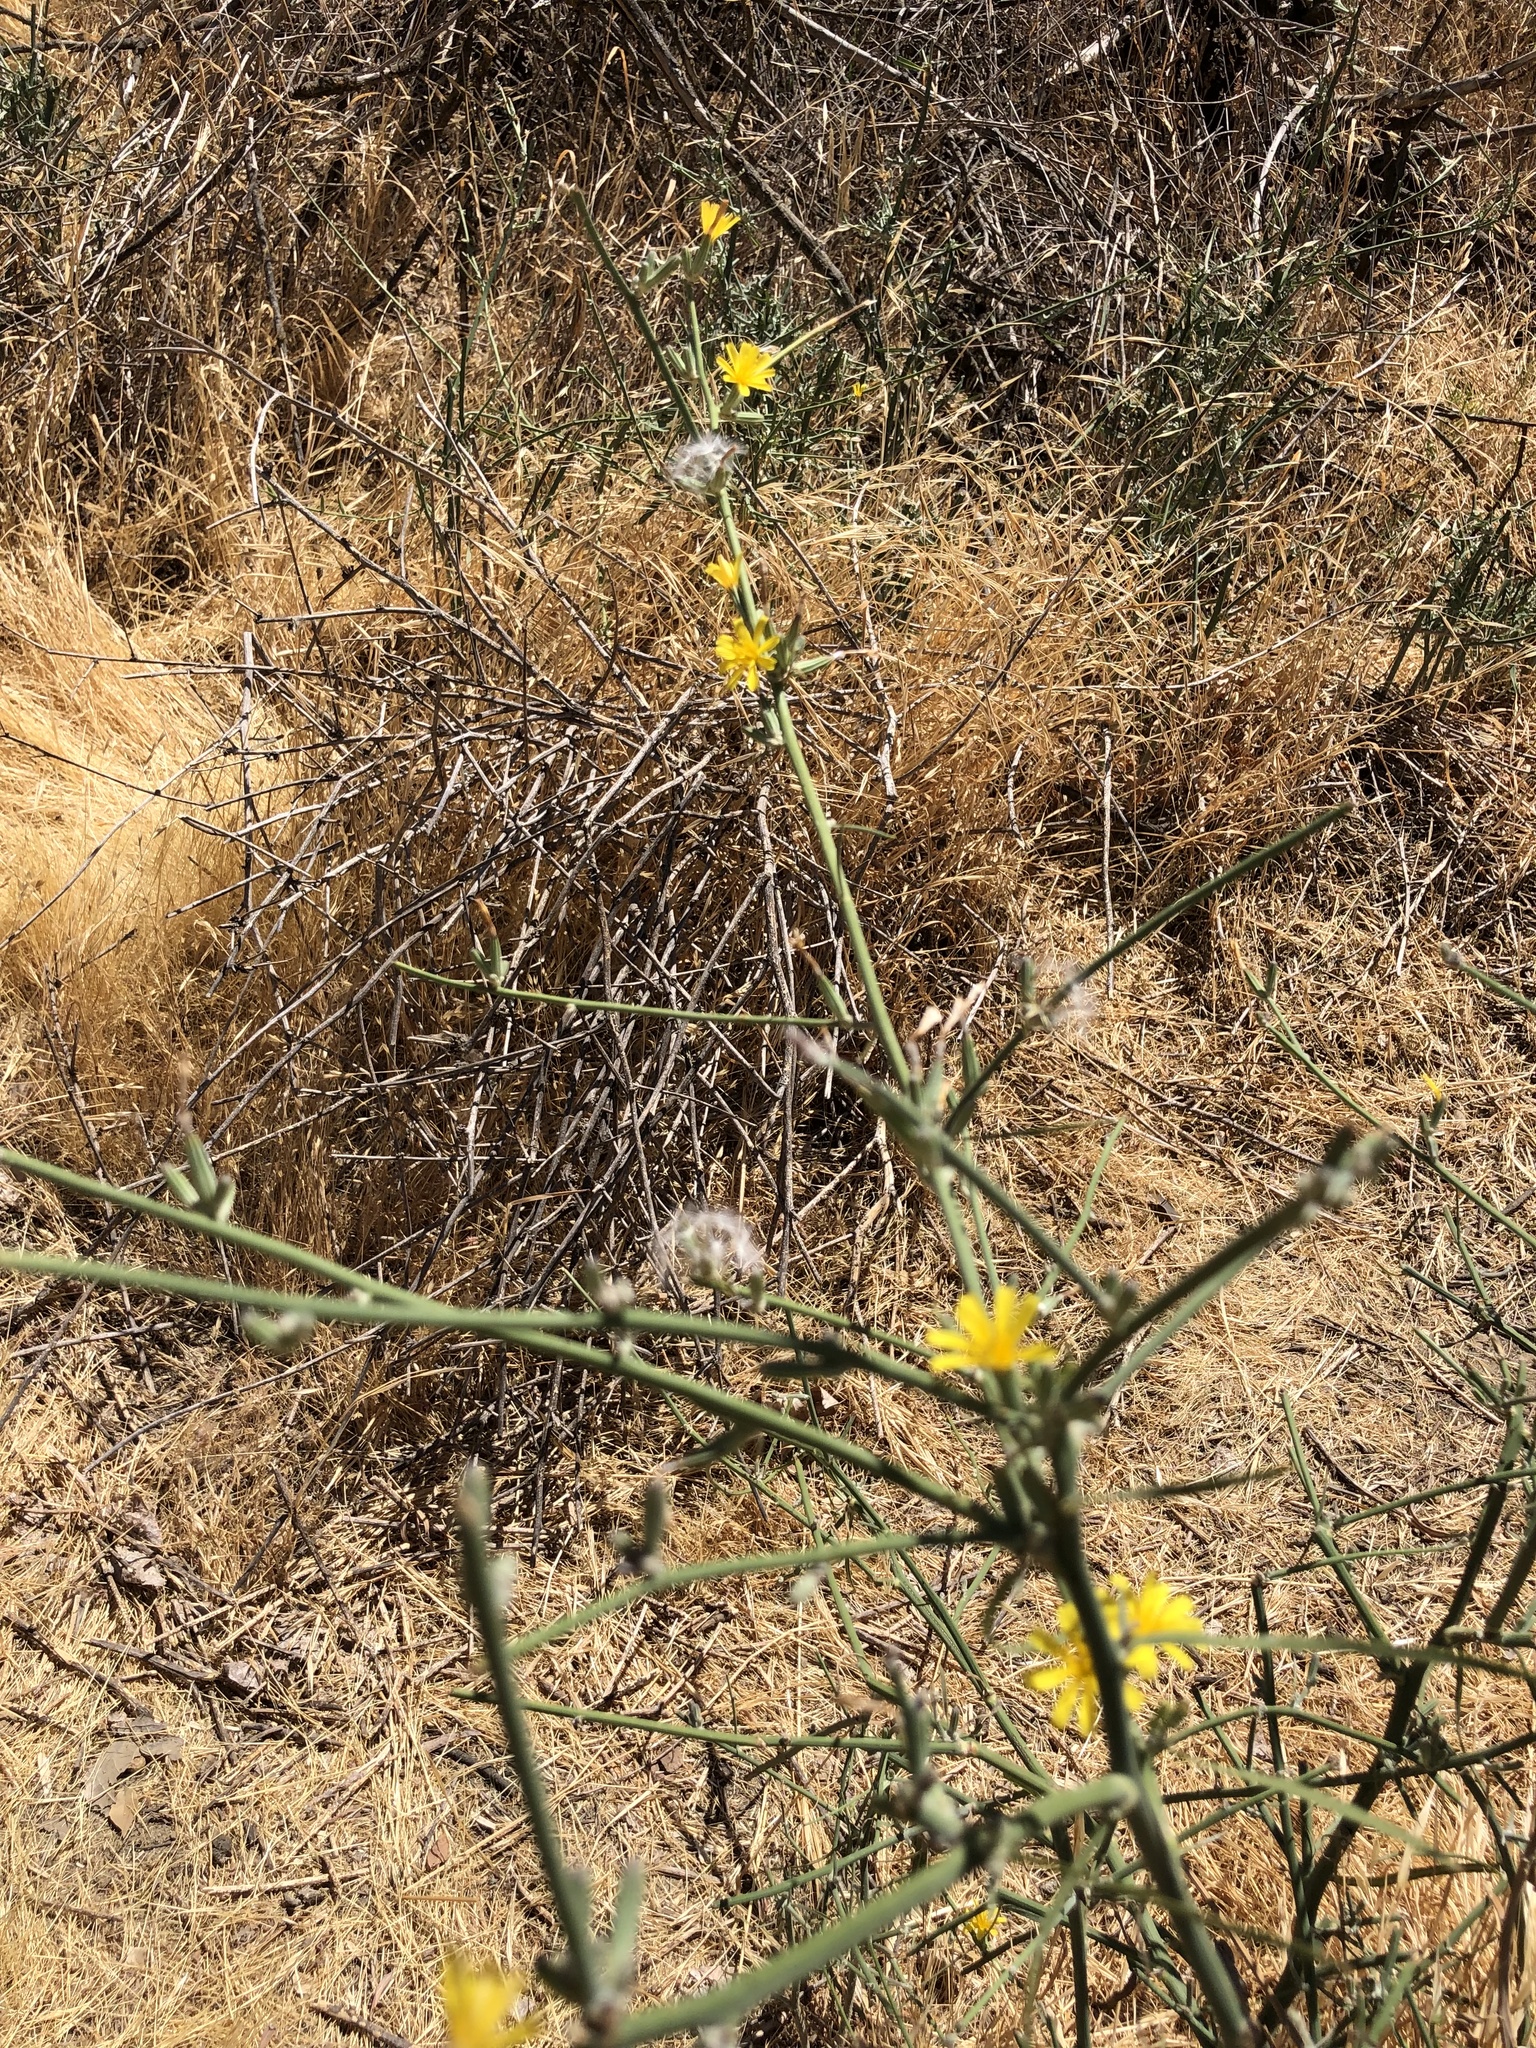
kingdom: Plantae
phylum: Tracheophyta
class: Magnoliopsida
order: Asterales
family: Asteraceae
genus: Chondrilla
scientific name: Chondrilla juncea
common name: Skeleton weed
